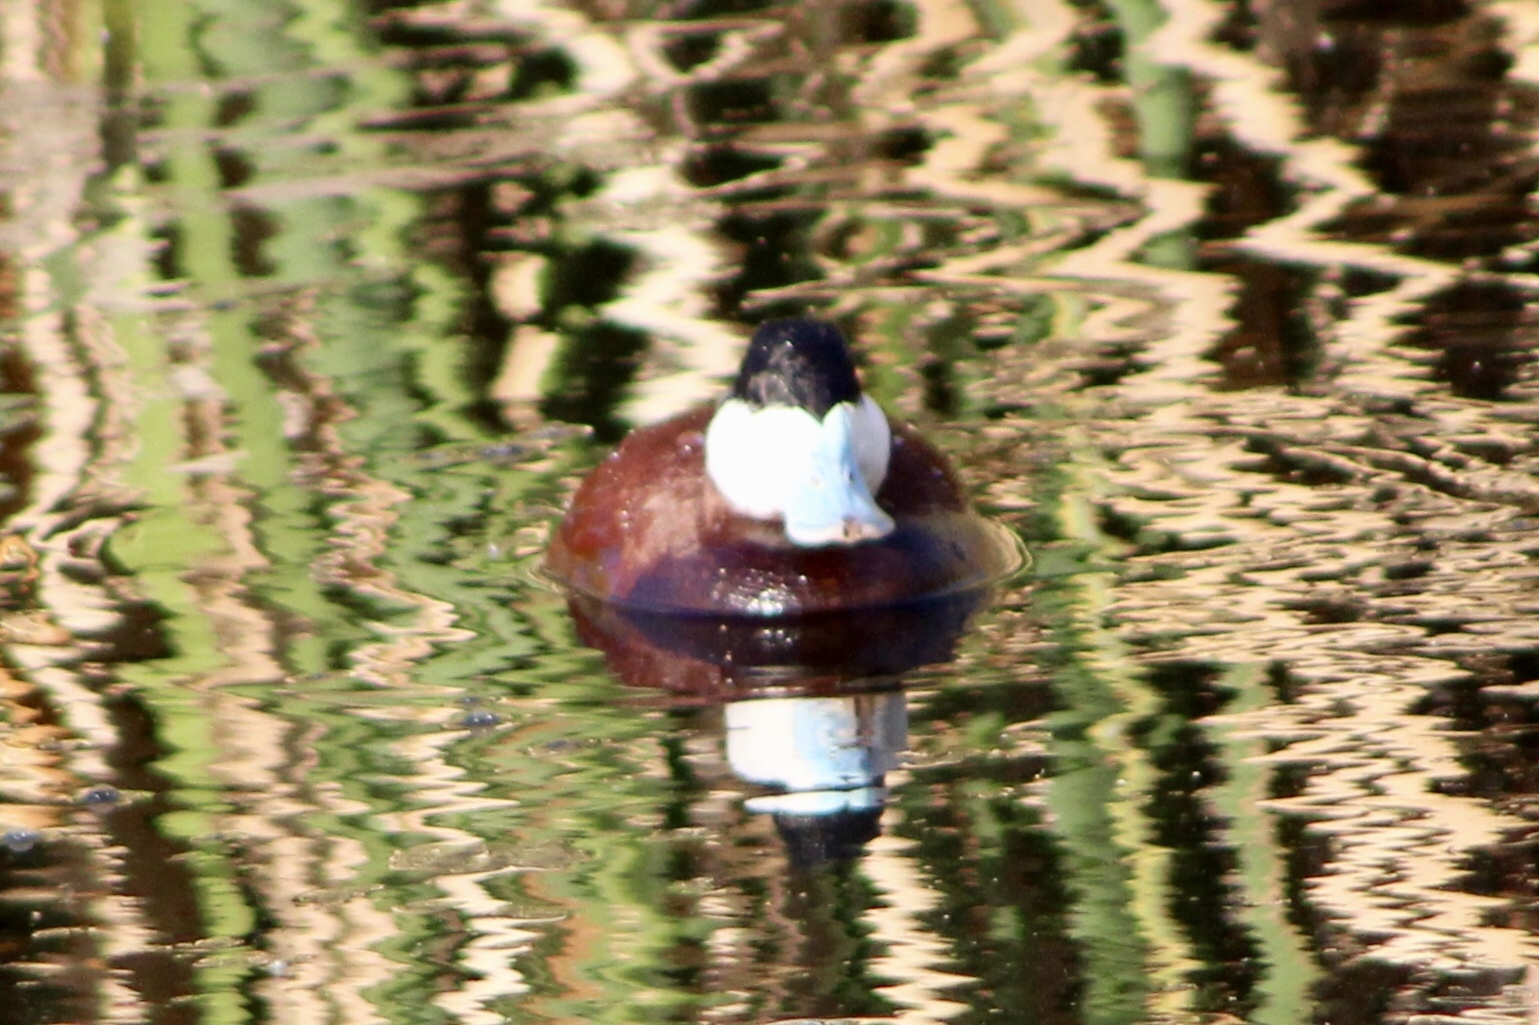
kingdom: Animalia
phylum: Chordata
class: Aves
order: Anseriformes
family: Anatidae
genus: Oxyura
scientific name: Oxyura jamaicensis
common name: Ruddy duck
